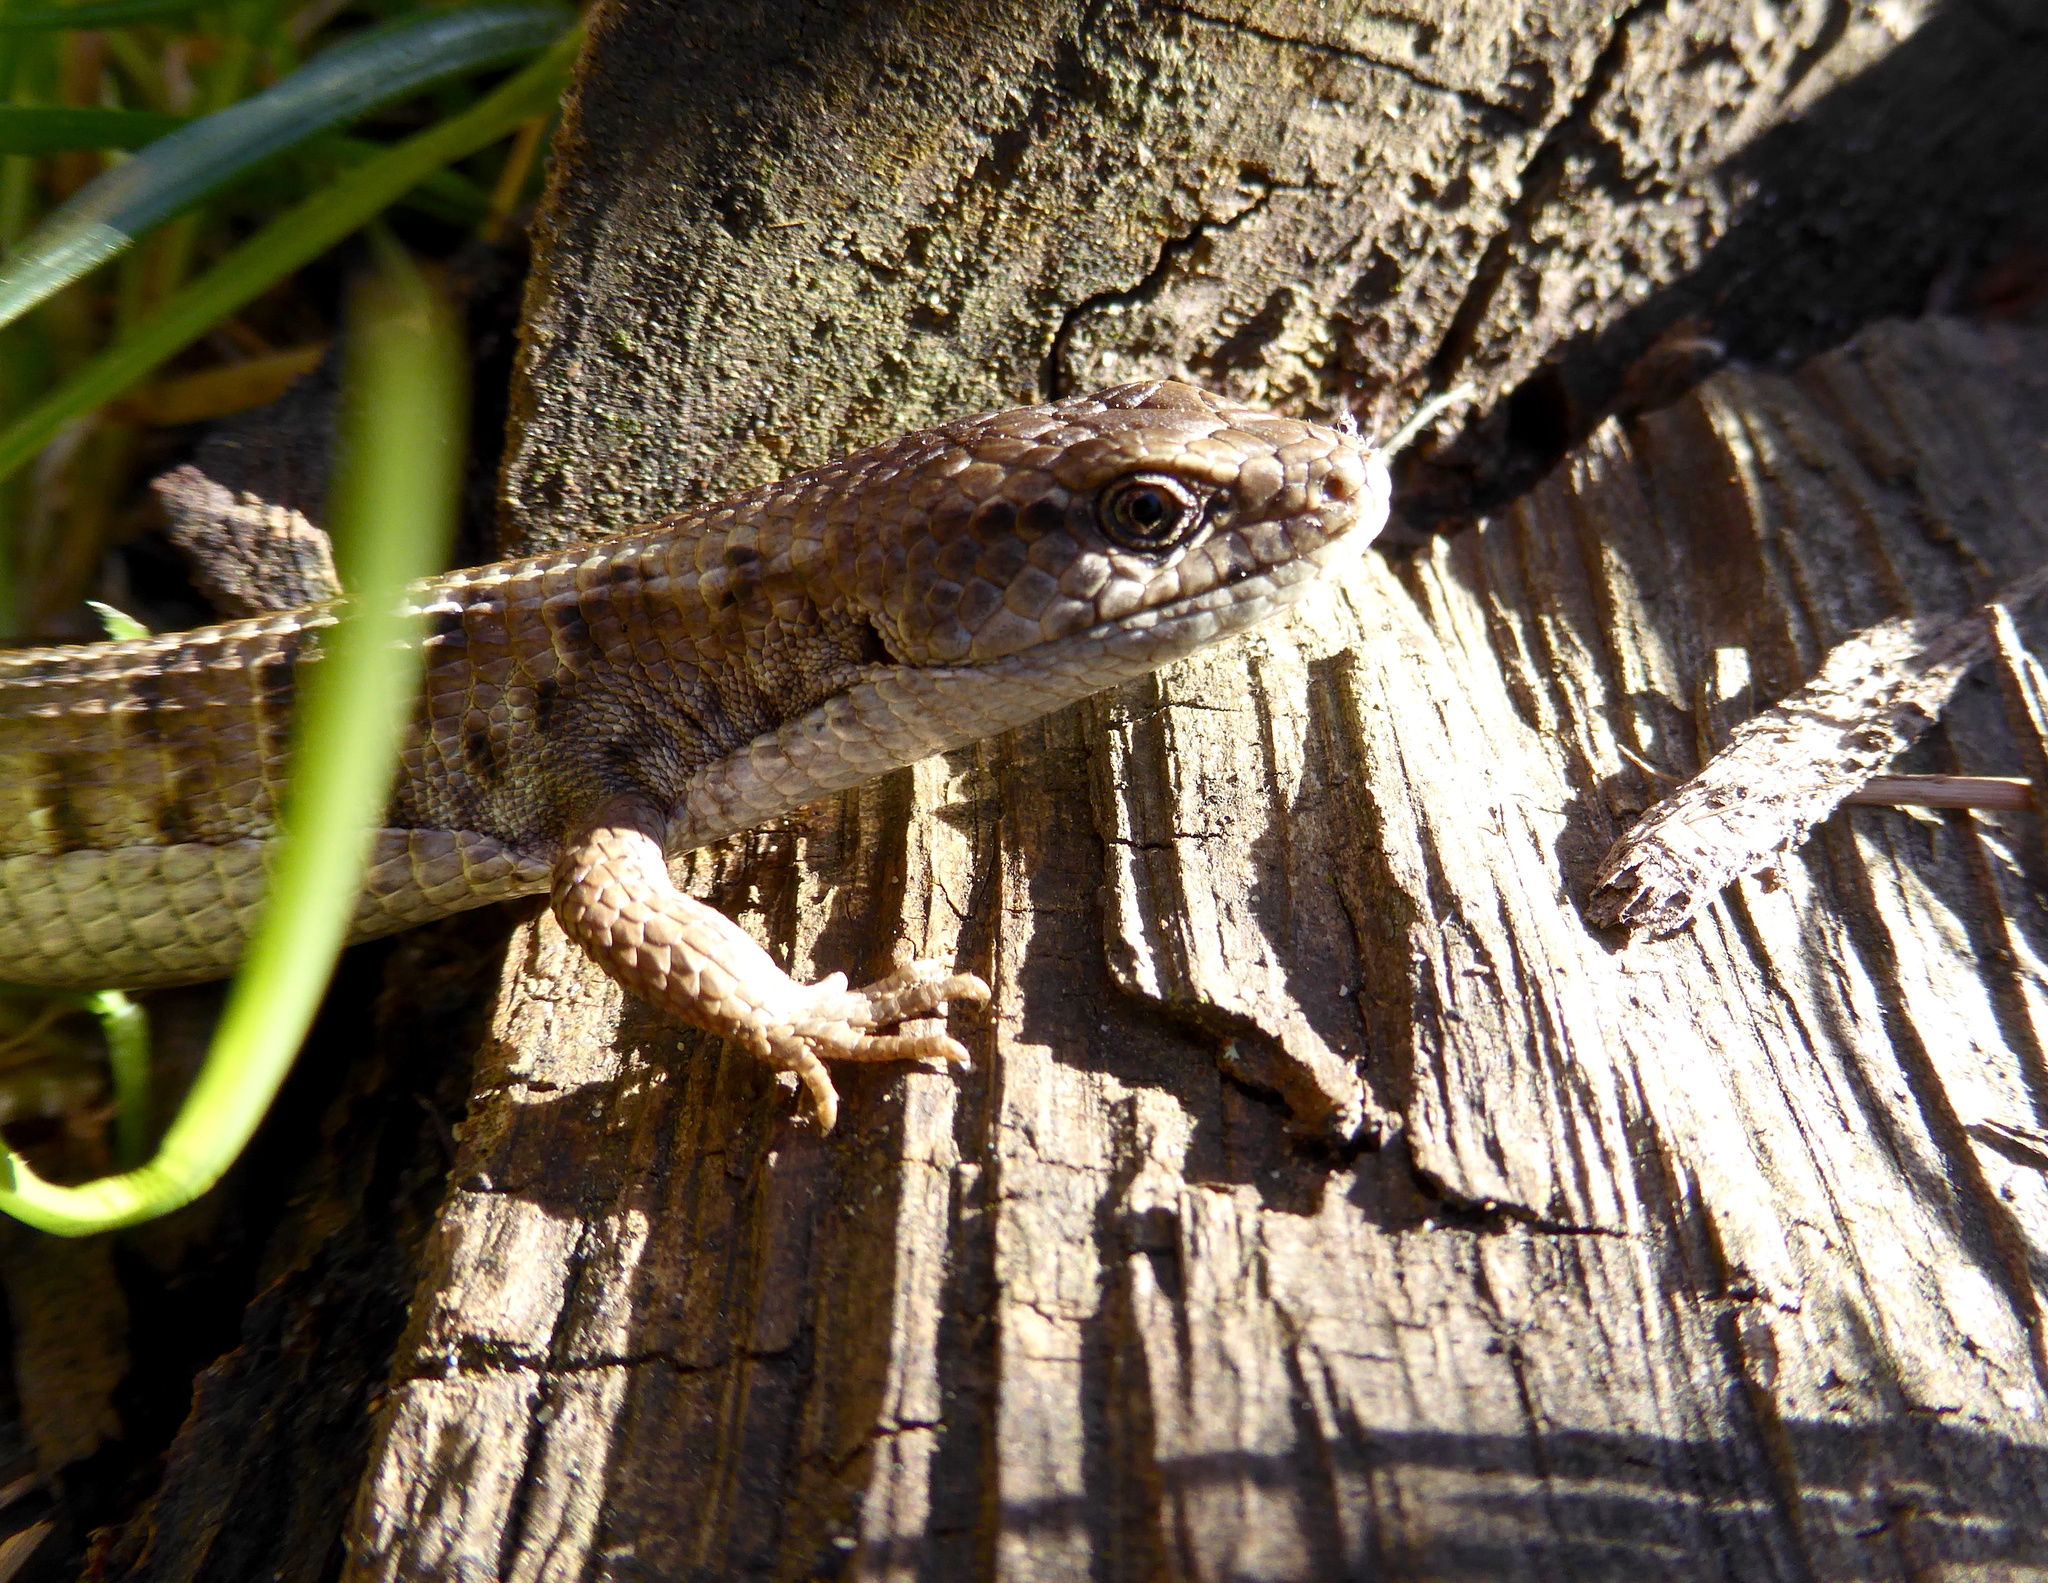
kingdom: Animalia
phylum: Chordata
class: Squamata
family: Anguidae
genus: Elgaria
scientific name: Elgaria coerulea
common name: Northern alligator lizard
